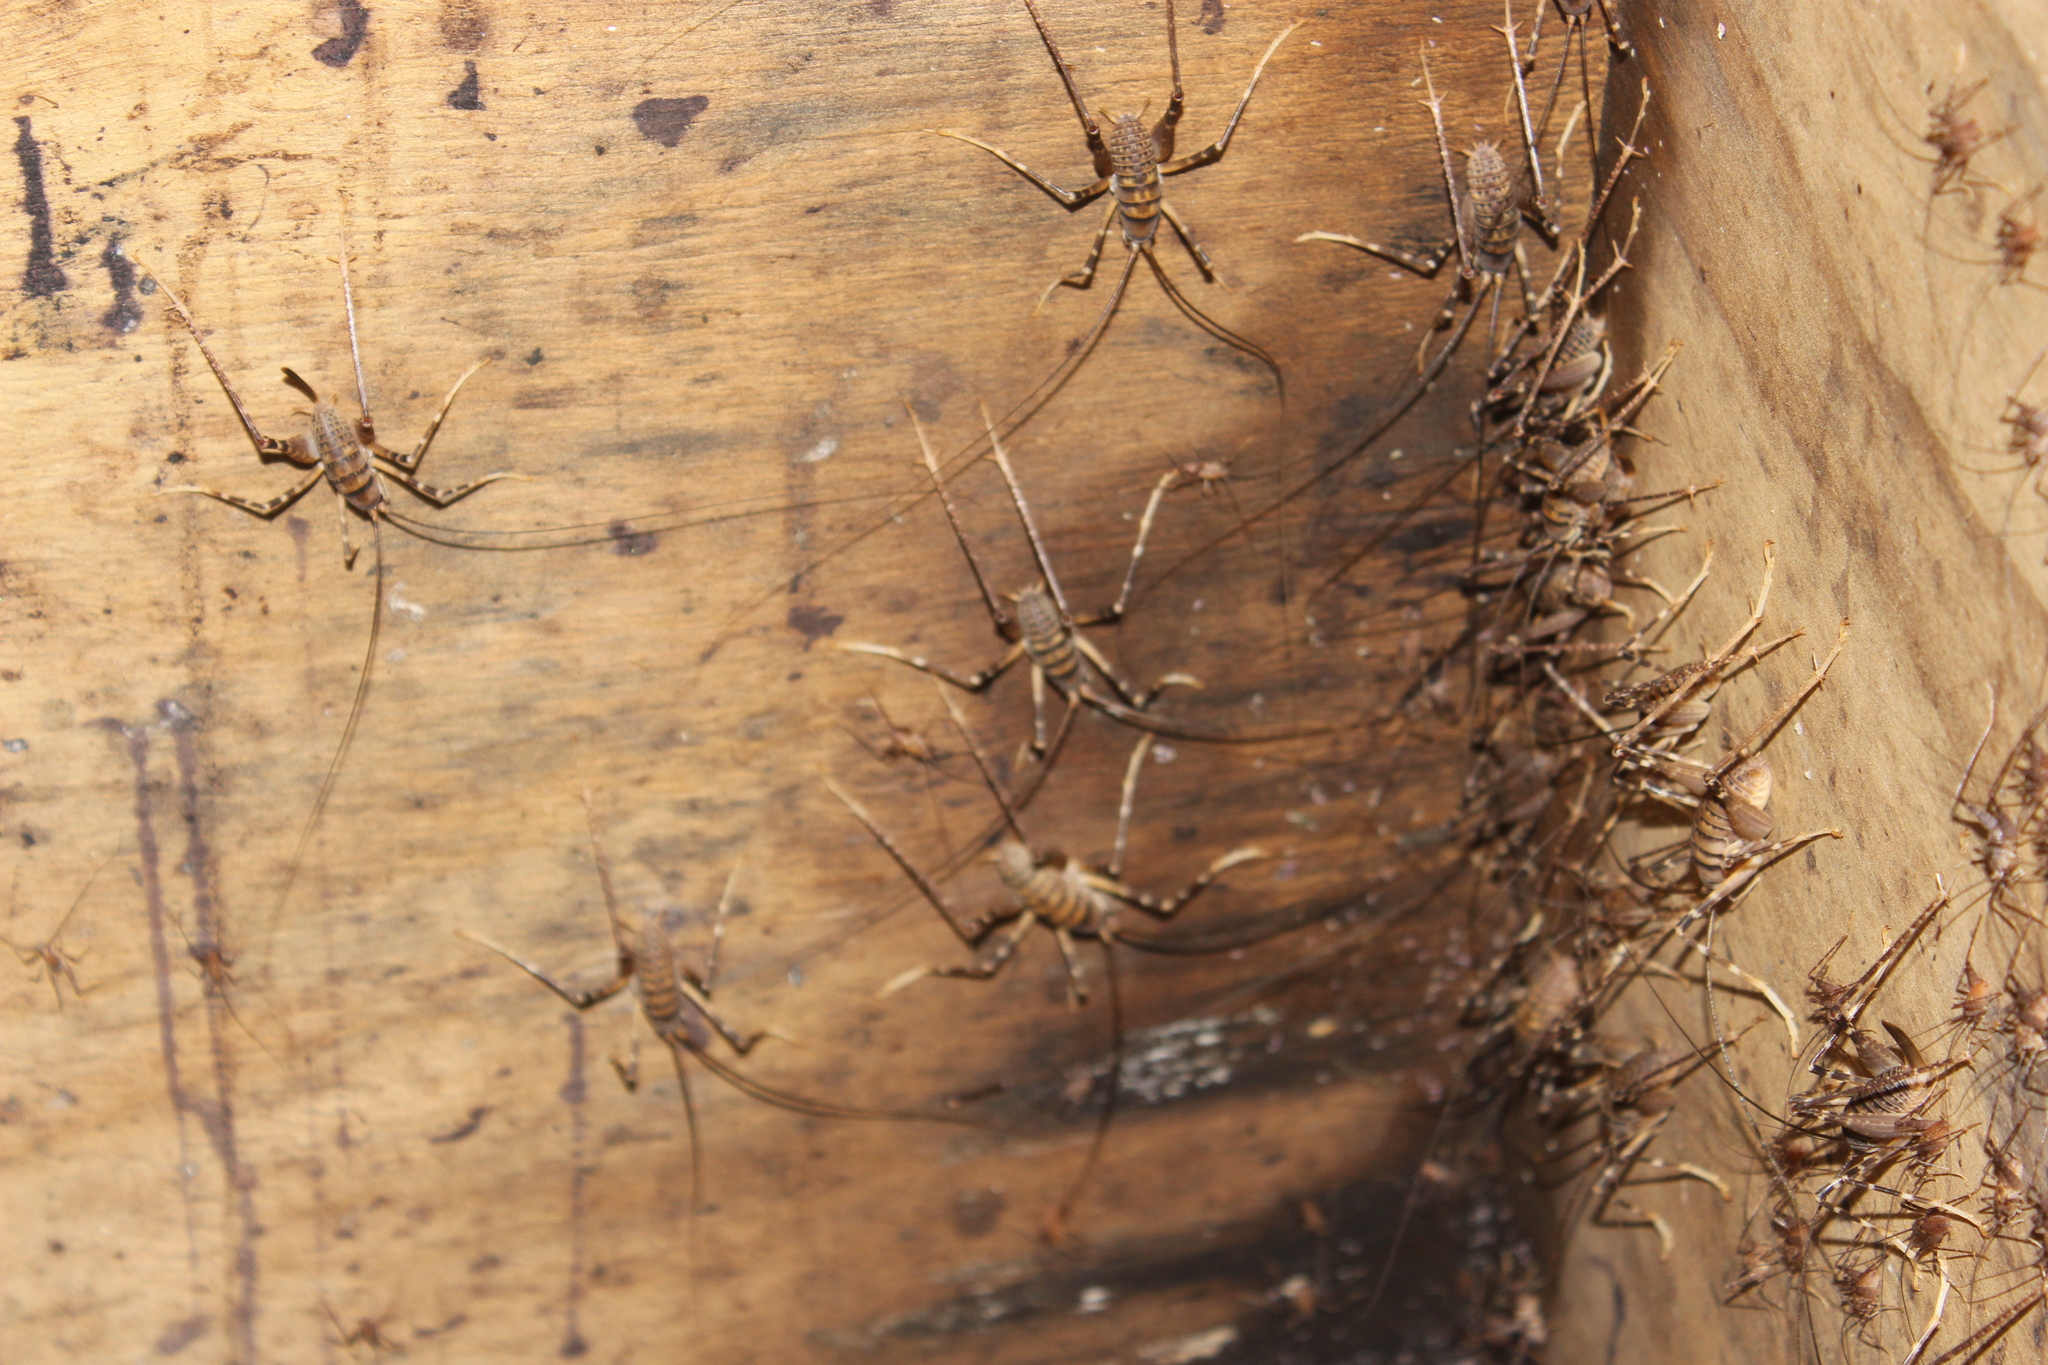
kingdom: Animalia
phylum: Arthropoda
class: Insecta
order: Orthoptera
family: Rhaphidophoridae
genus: Pachyrhamma
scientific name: Pachyrhamma edwardsii
